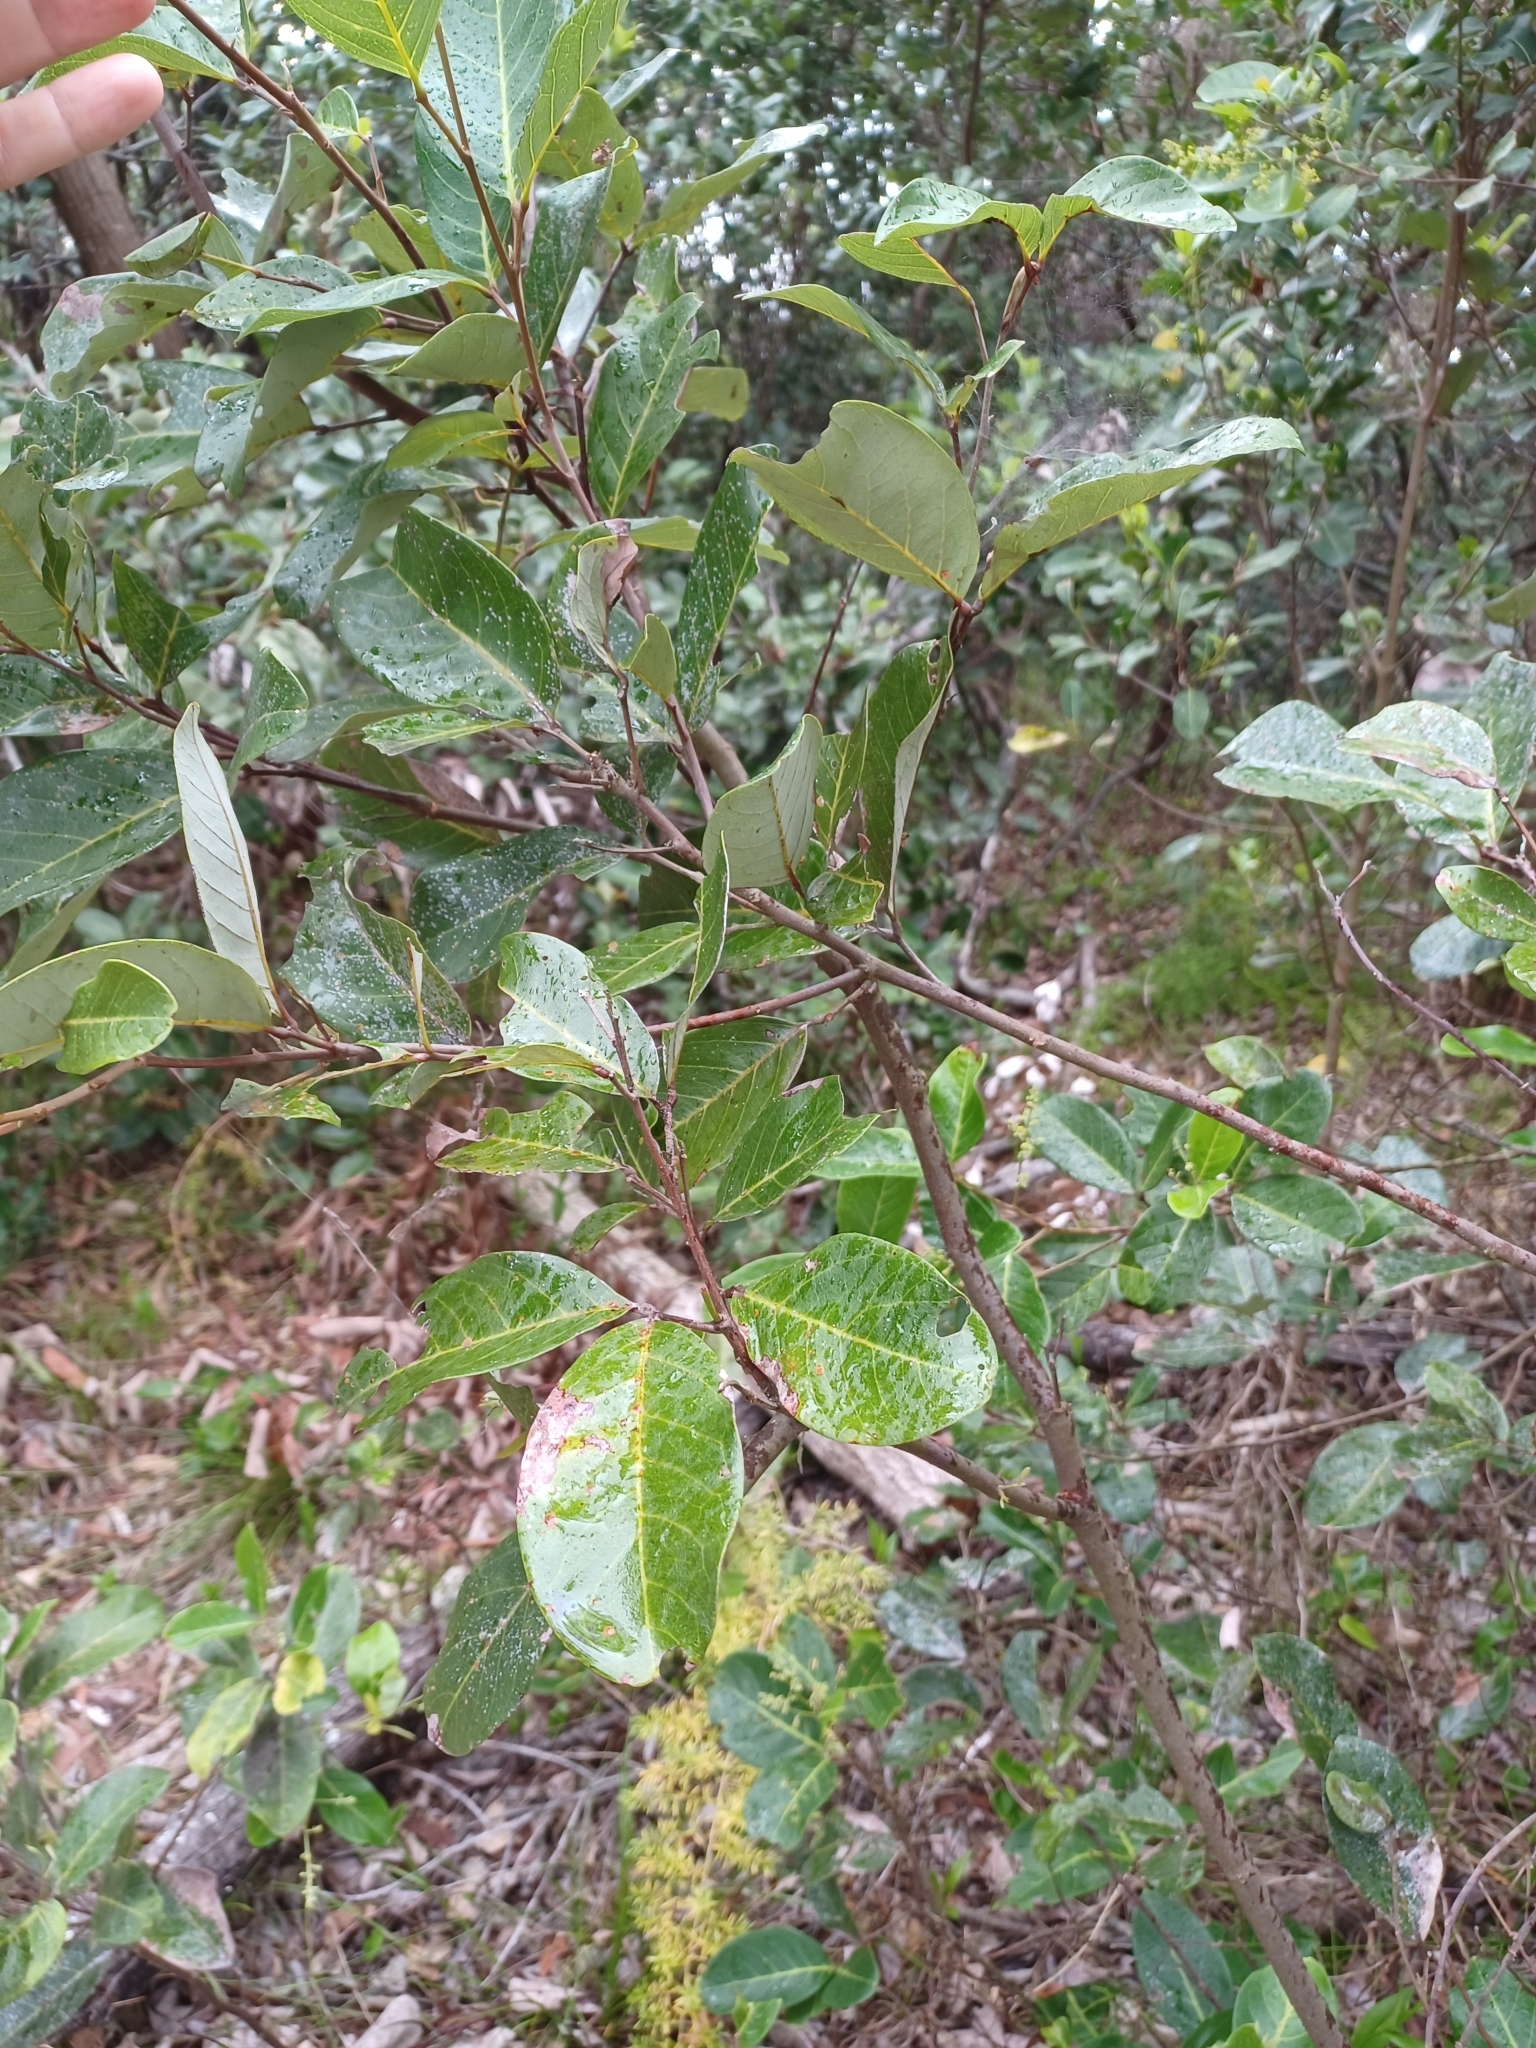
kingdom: Plantae
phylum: Tracheophyta
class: Magnoliopsida
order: Sapindales
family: Sapindaceae
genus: Alectryon
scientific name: Alectryon coriaceus
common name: Beach alectryon
